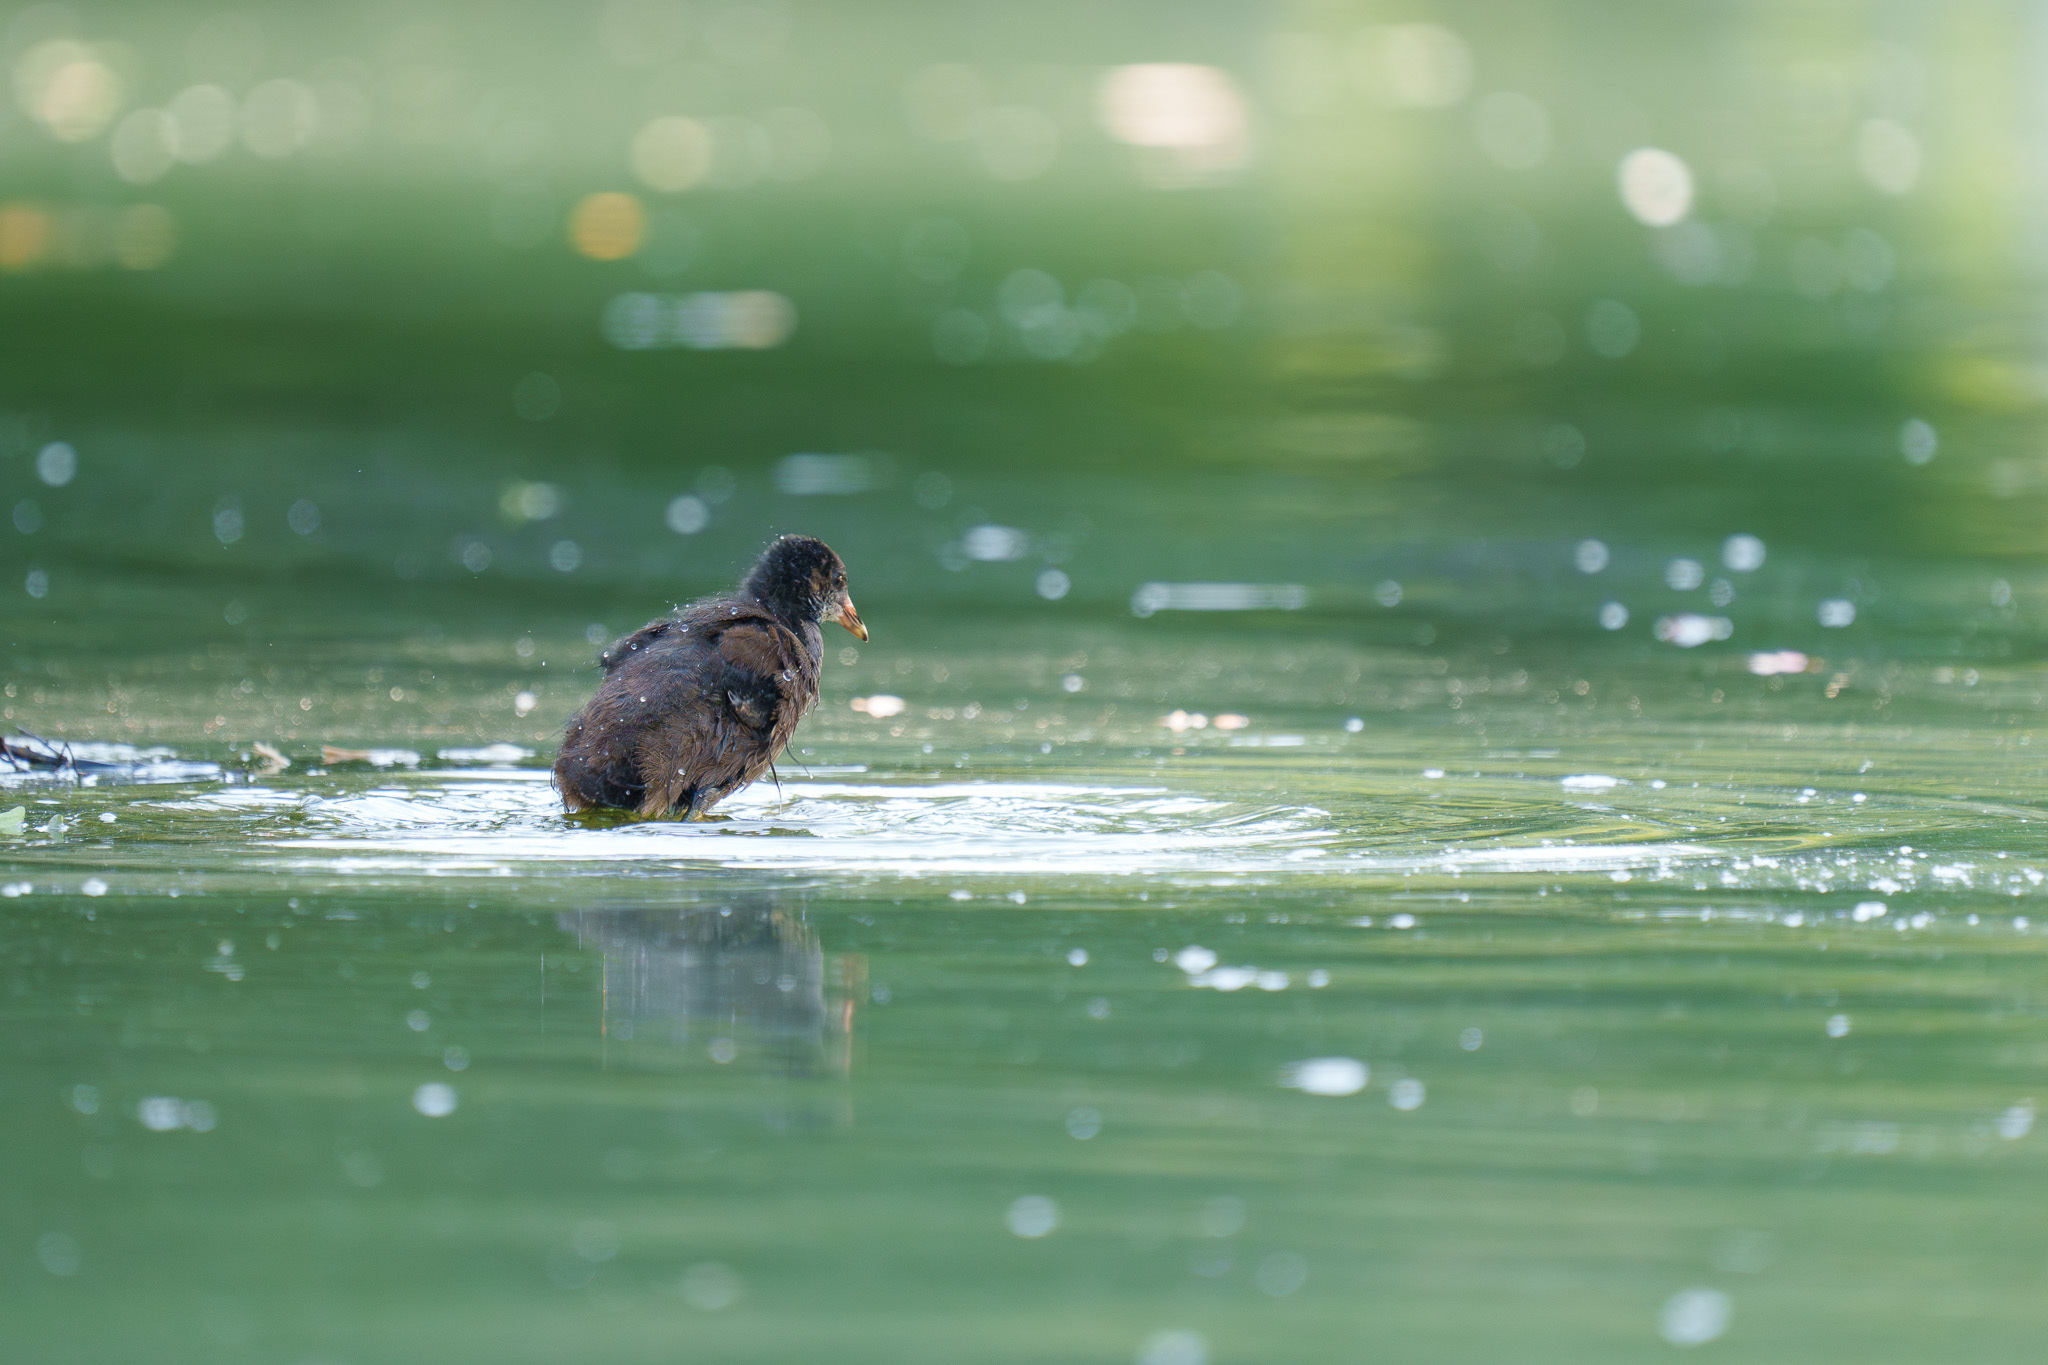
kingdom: Animalia
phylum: Chordata
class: Aves
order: Gruiformes
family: Rallidae
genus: Fulica
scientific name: Fulica atra
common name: Eurasian coot
